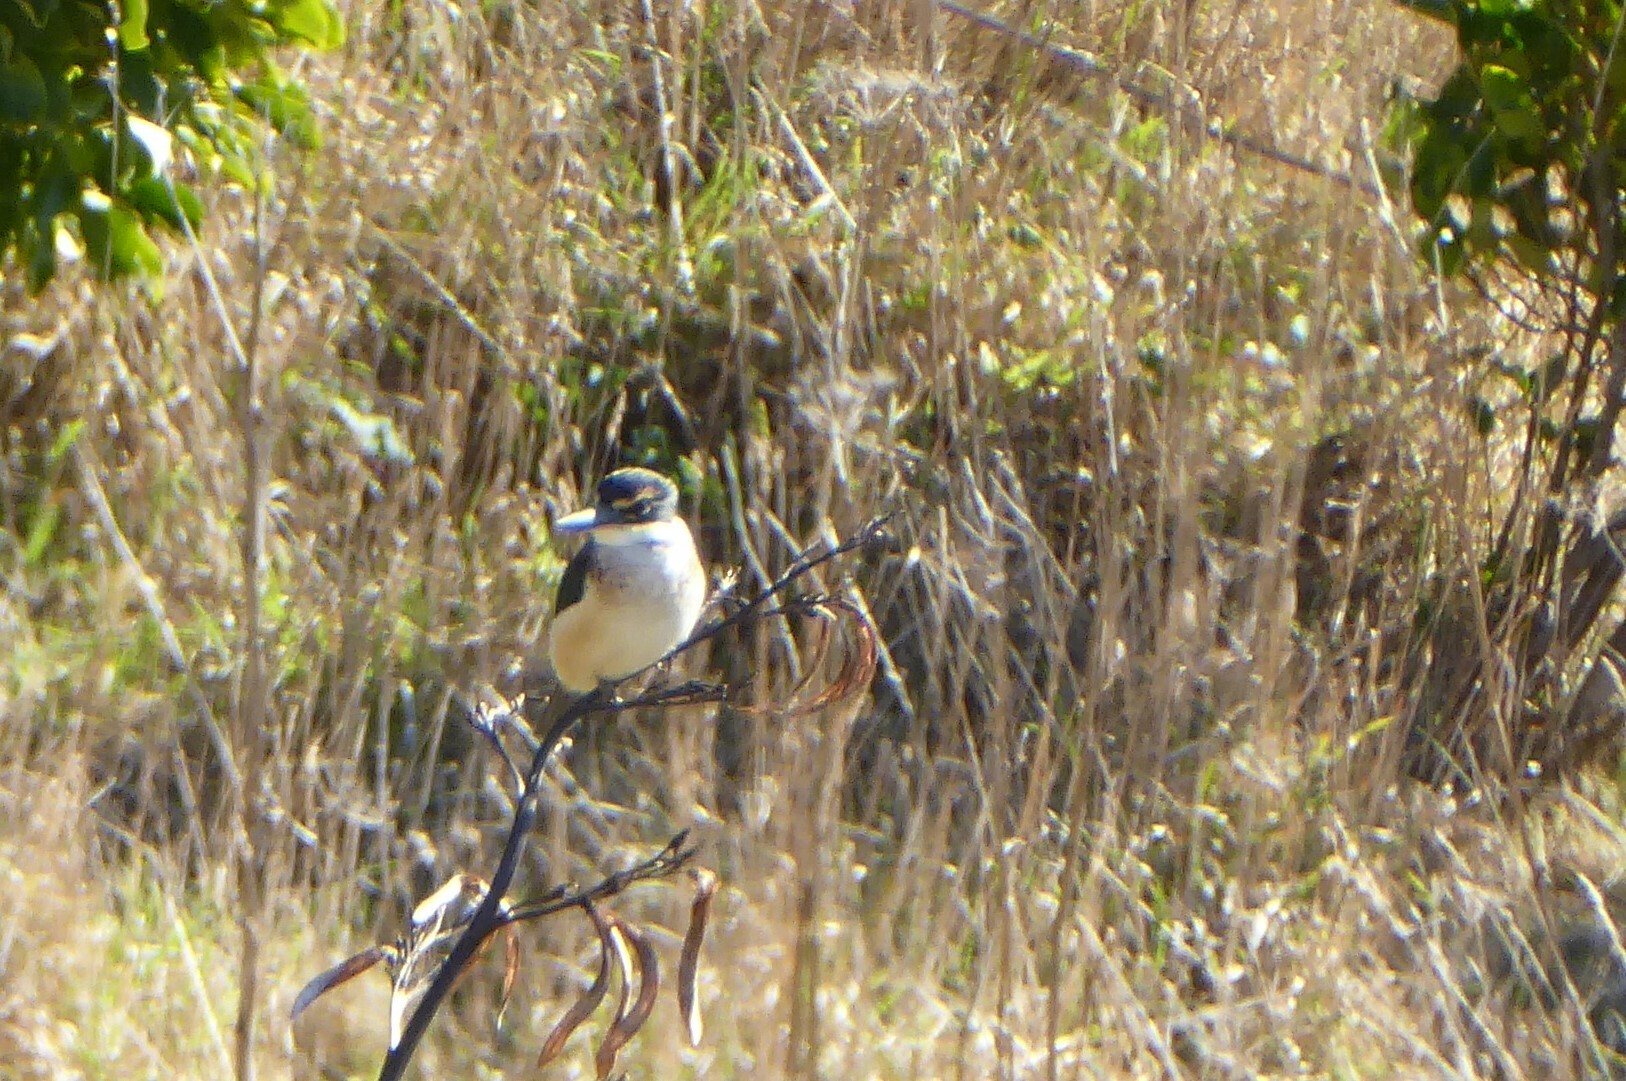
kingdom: Animalia
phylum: Chordata
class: Aves
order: Coraciiformes
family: Alcedinidae
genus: Todiramphus
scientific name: Todiramphus sanctus
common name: Sacred kingfisher
